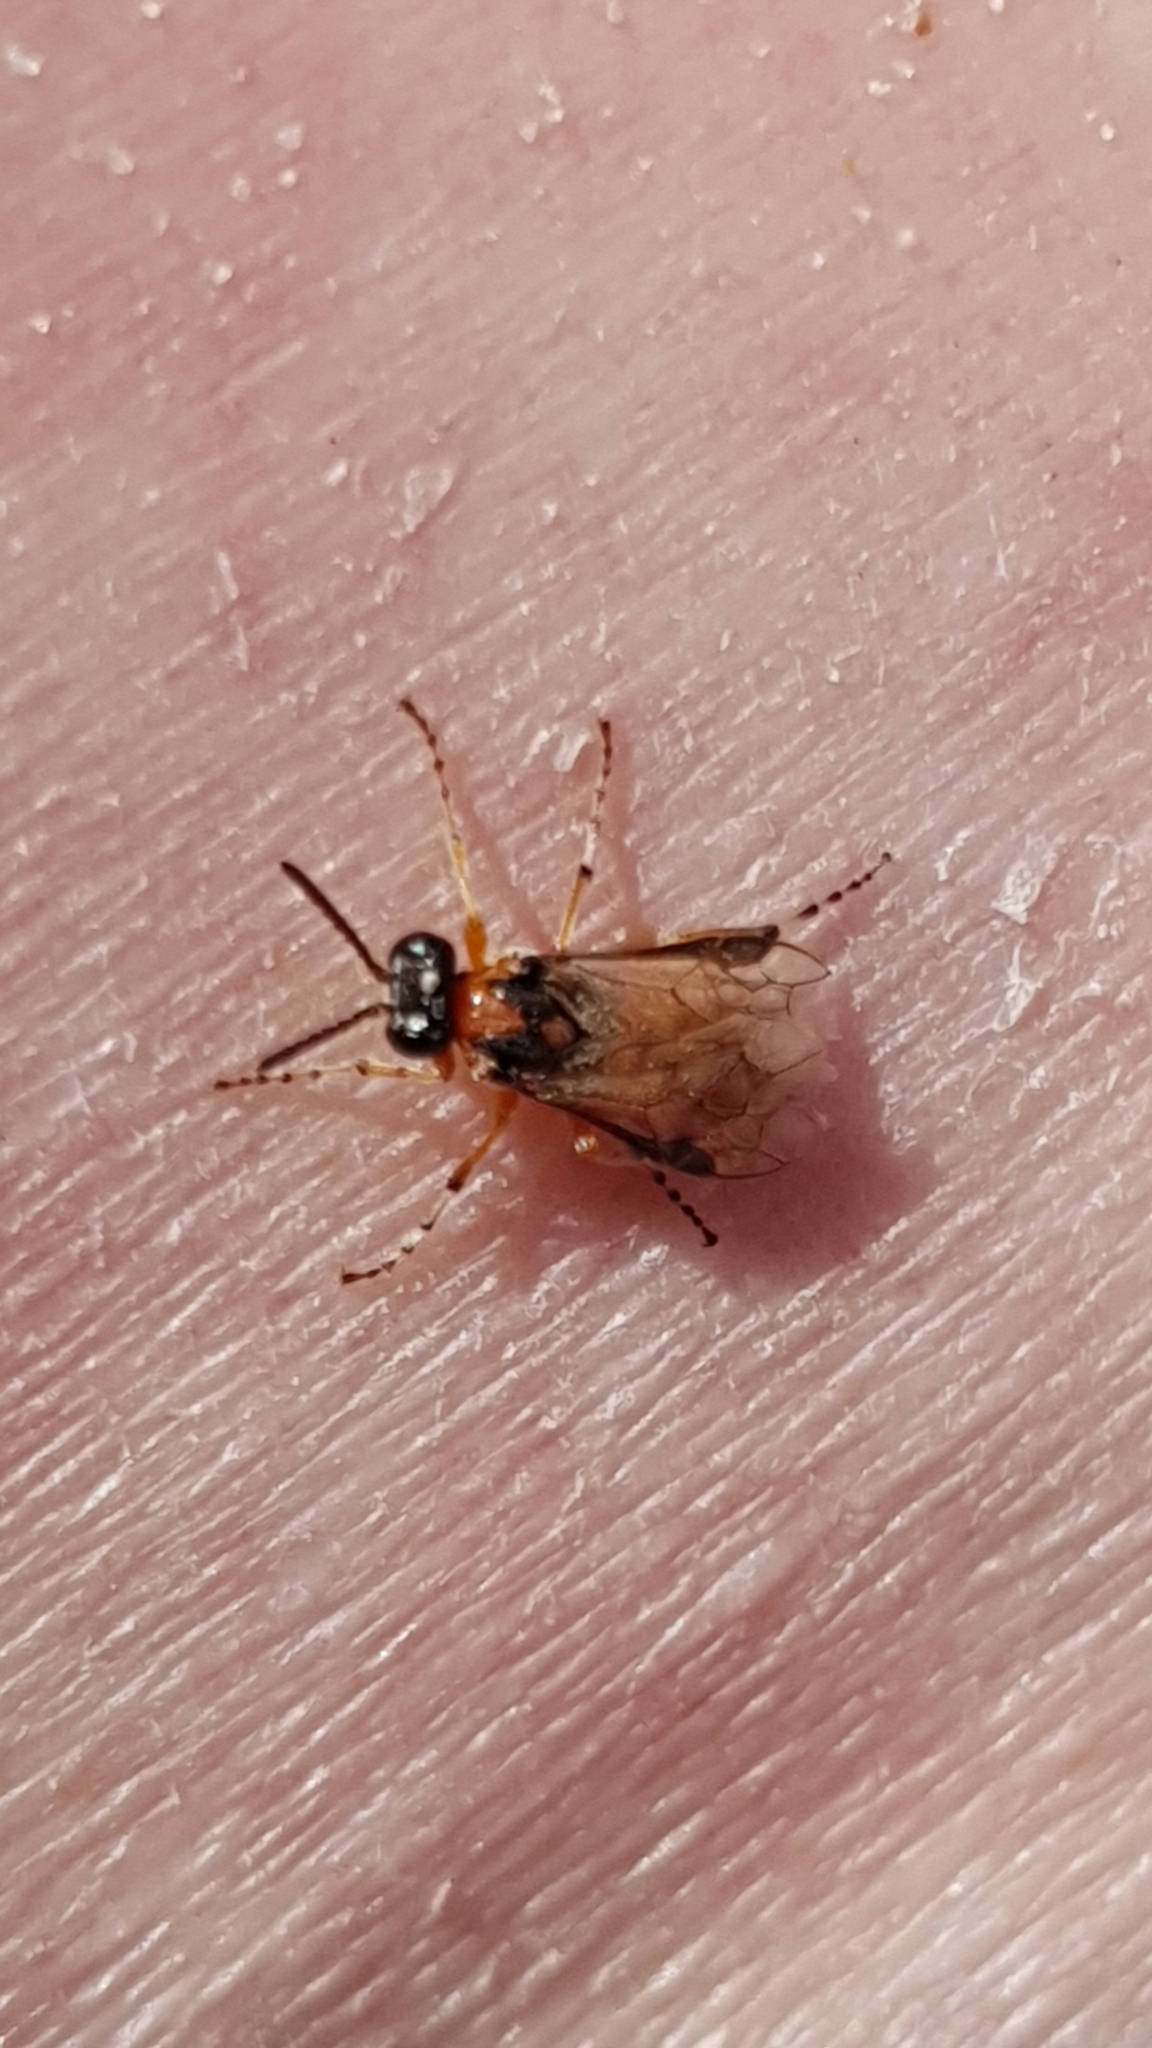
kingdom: Animalia
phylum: Arthropoda
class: Insecta
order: Hymenoptera
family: Tenthredinidae
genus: Athalia
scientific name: Athalia rosae
